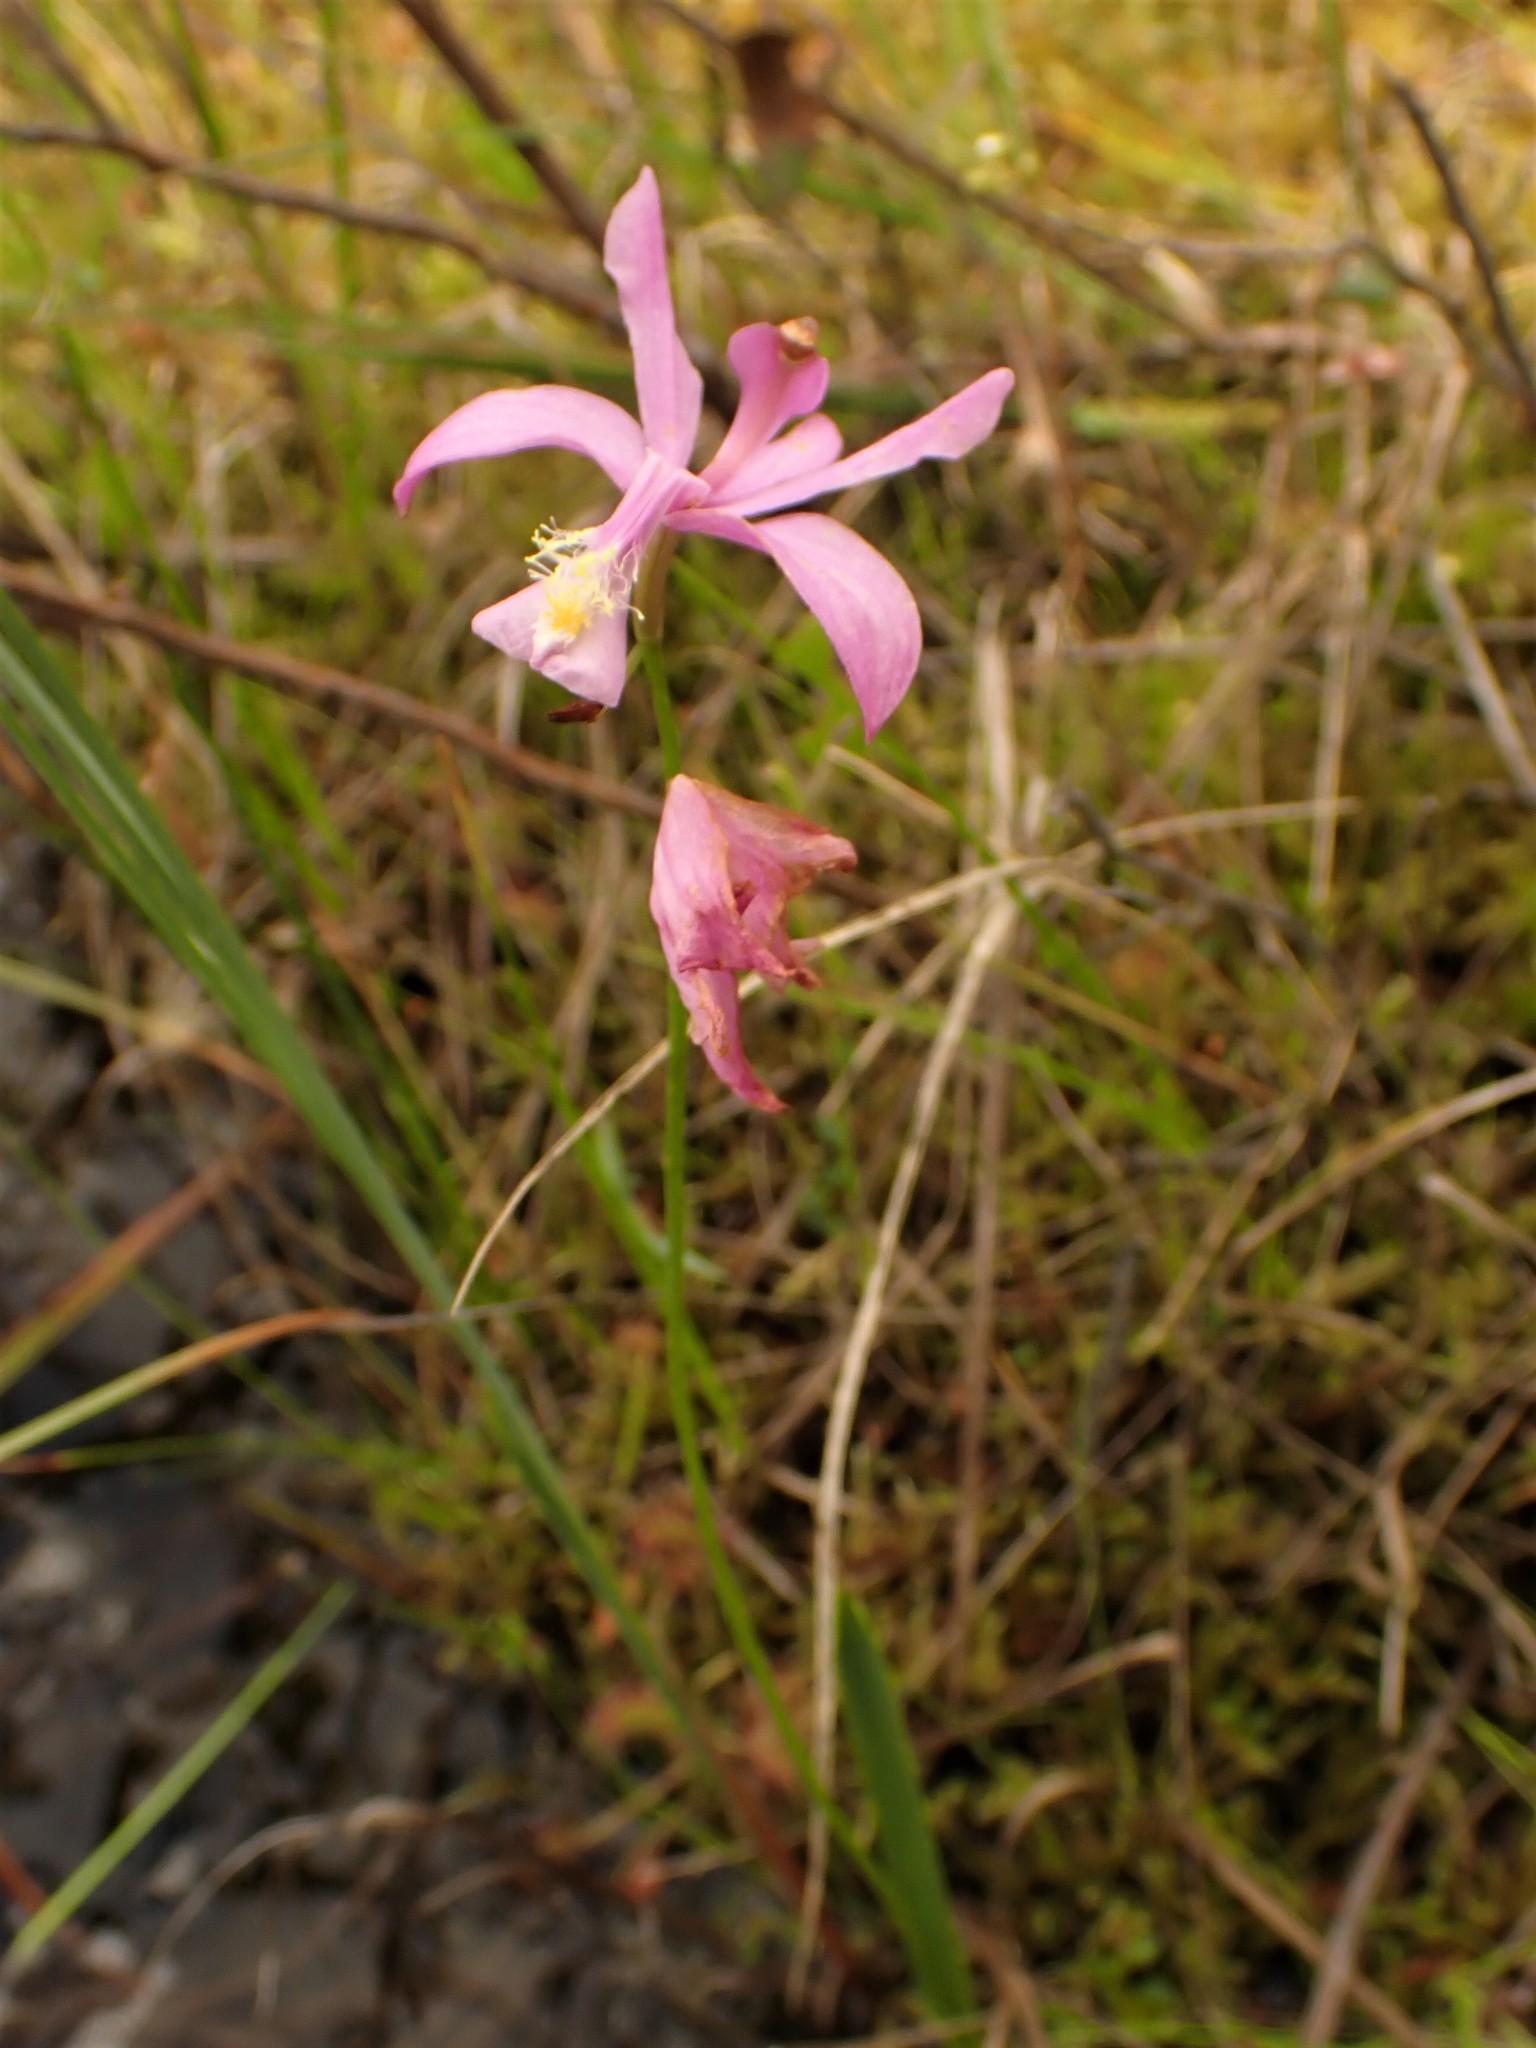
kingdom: Plantae
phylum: Tracheophyta
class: Liliopsida
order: Asparagales
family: Orchidaceae
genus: Calopogon
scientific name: Calopogon tuberosus
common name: Grass-pink
